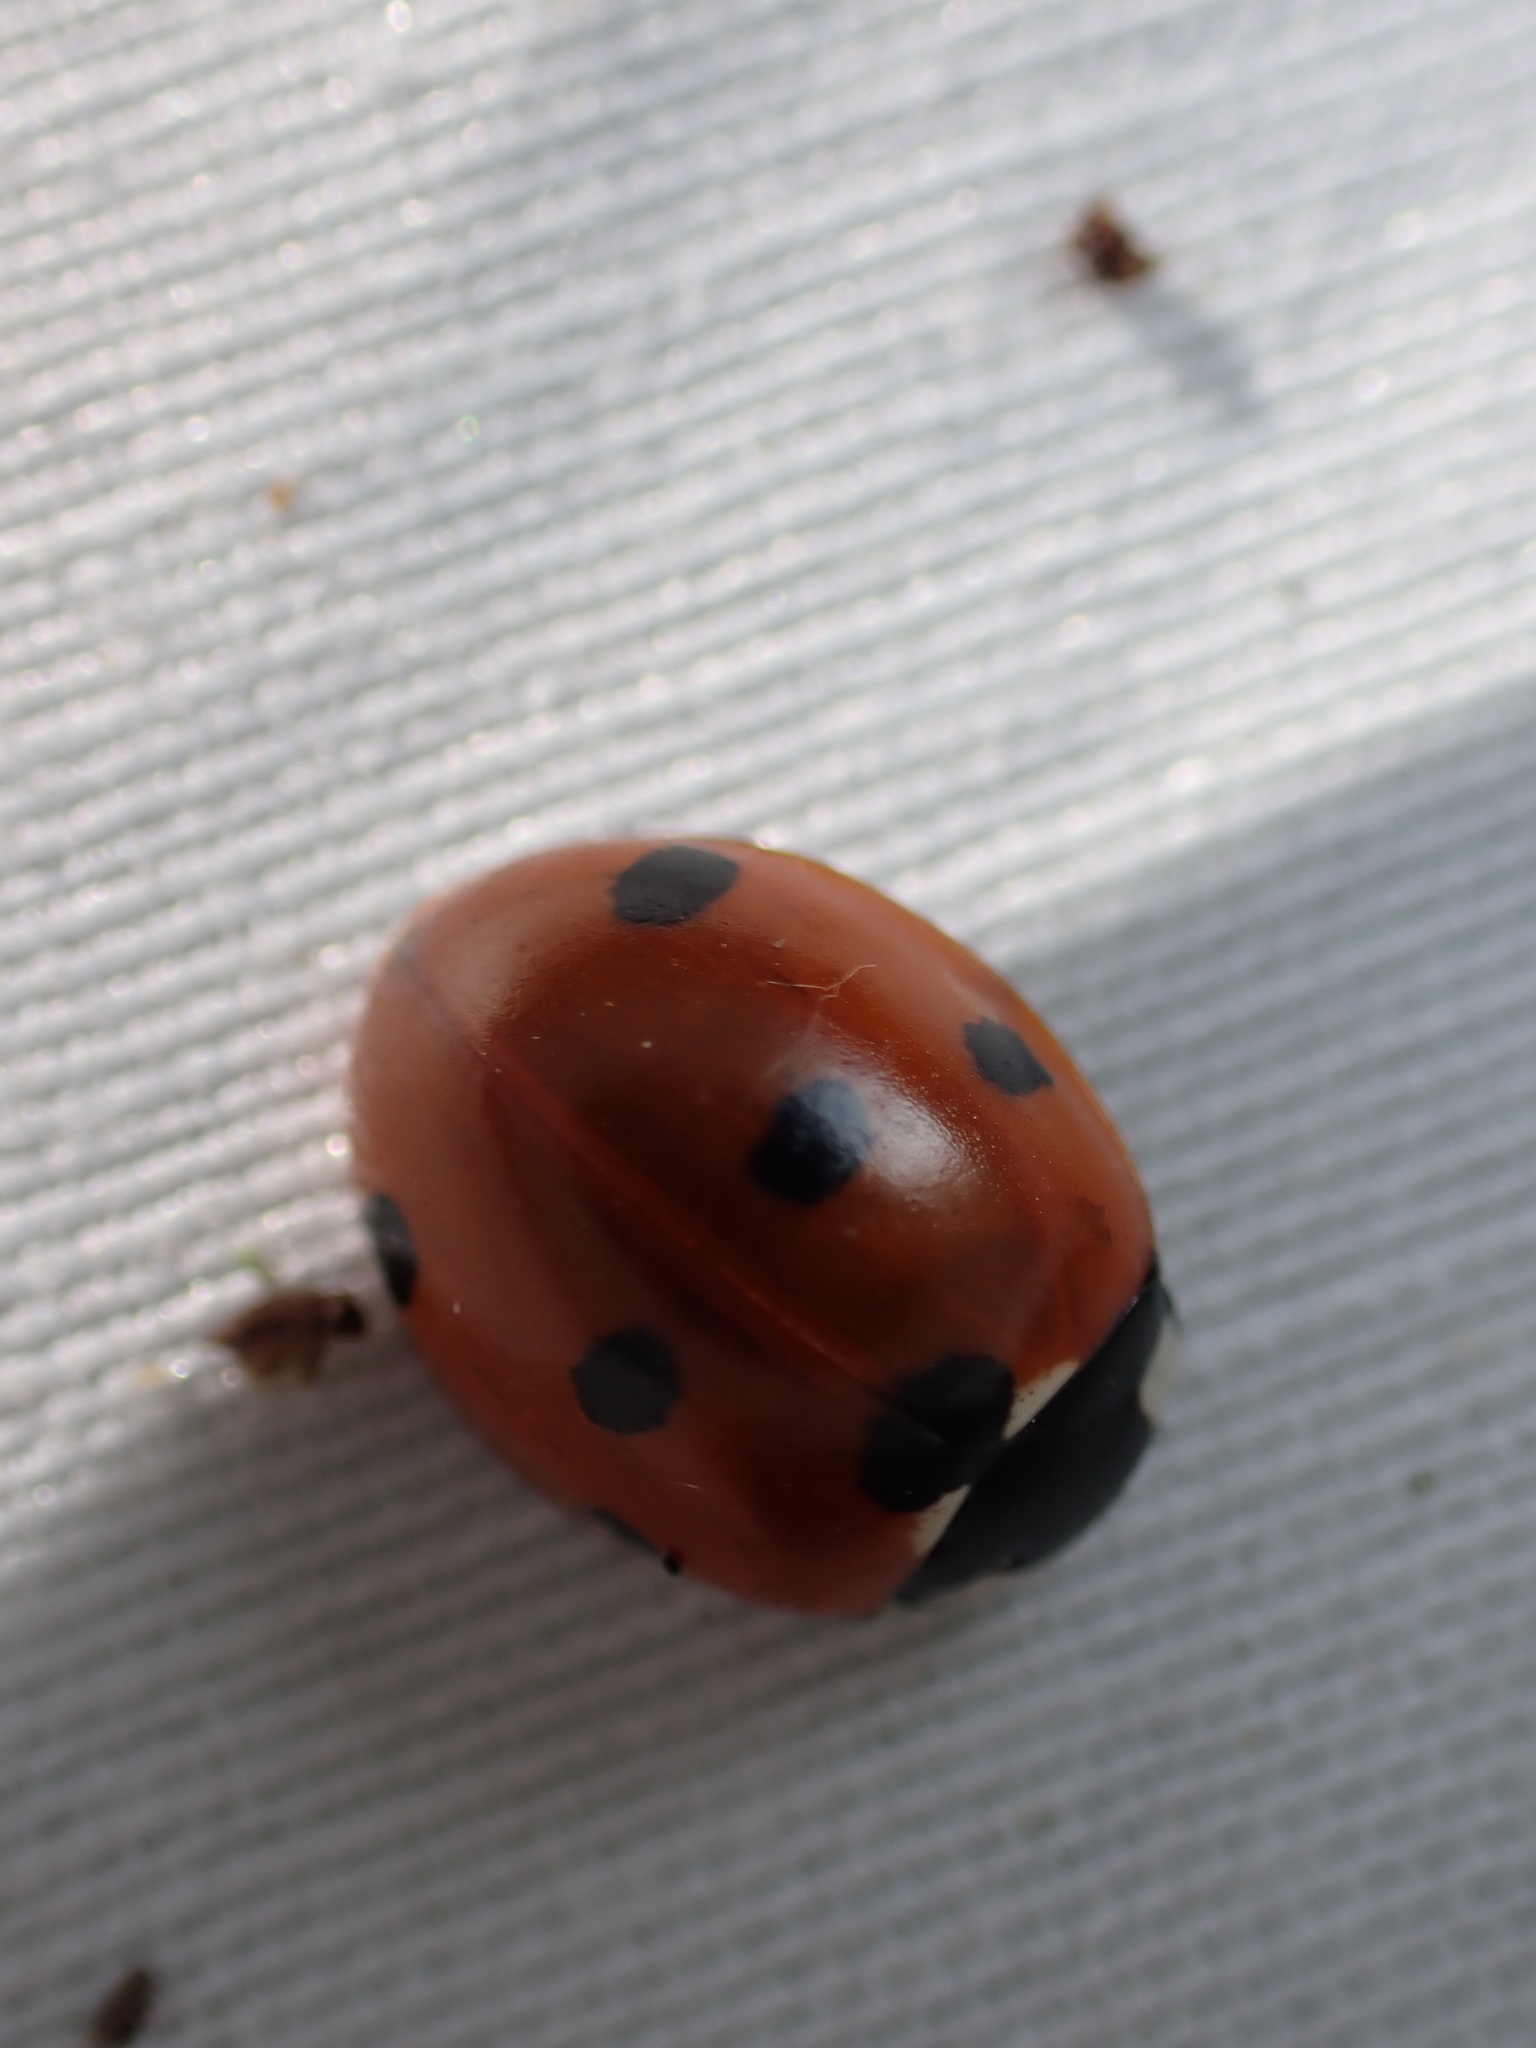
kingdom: Animalia
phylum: Arthropoda
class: Insecta
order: Coleoptera
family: Coccinellidae
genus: Coccinella
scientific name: Coccinella septempunctata
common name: Sevenspotted lady beetle
